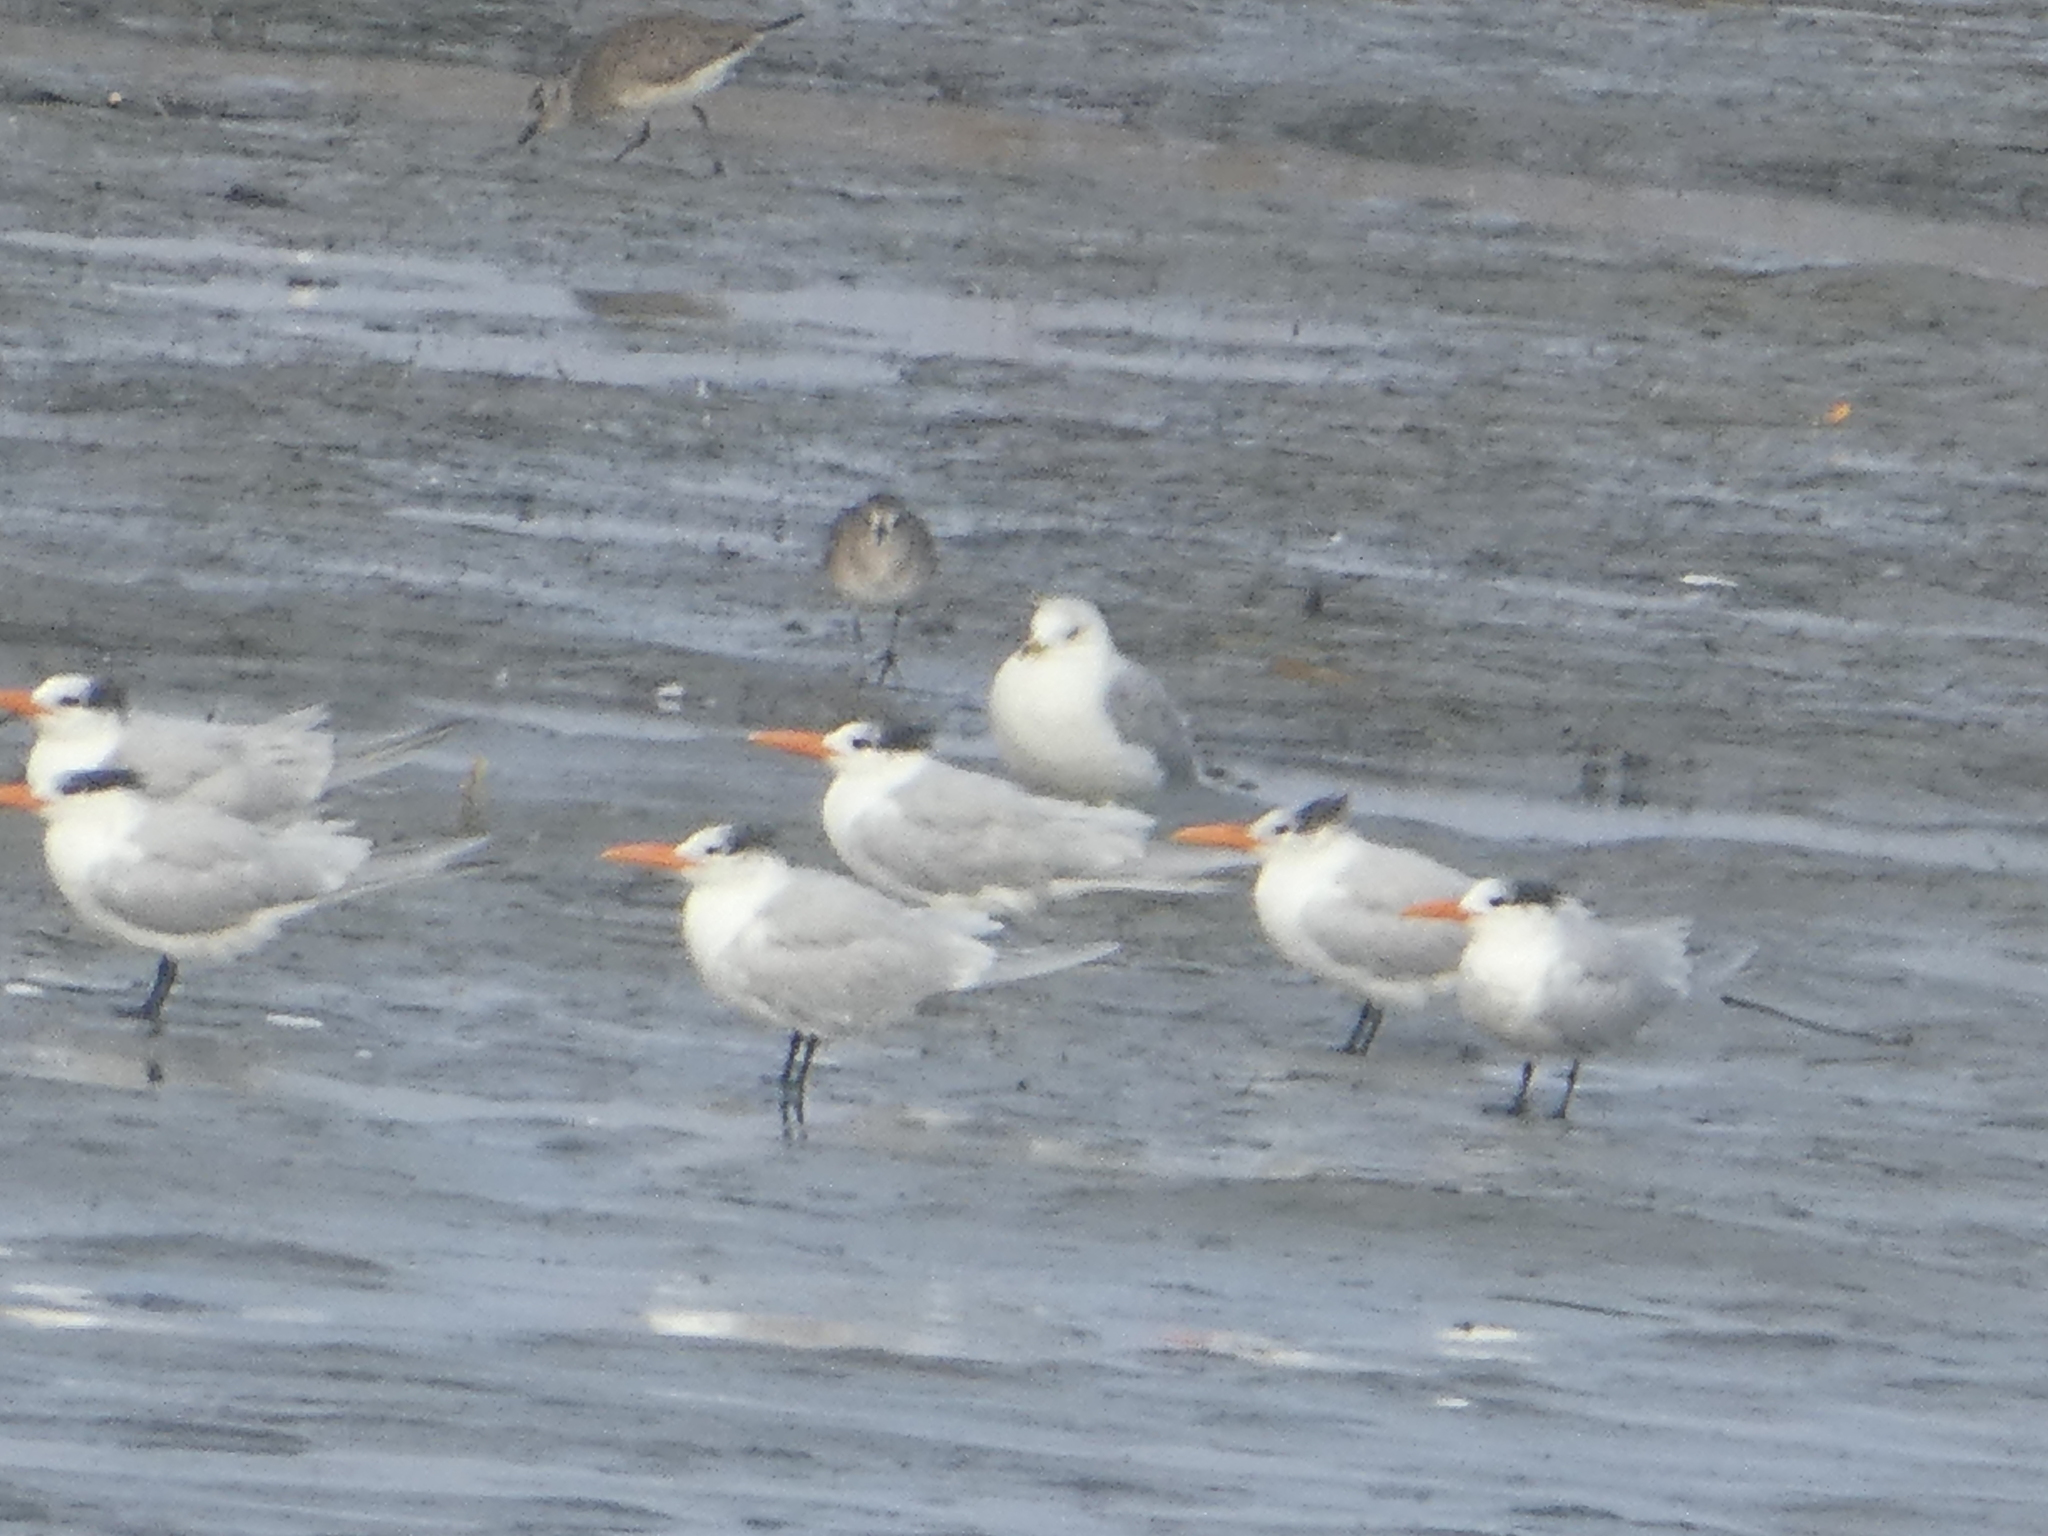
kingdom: Animalia
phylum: Chordata
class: Aves
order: Charadriiformes
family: Laridae
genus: Thalasseus
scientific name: Thalasseus maximus
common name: Royal tern
